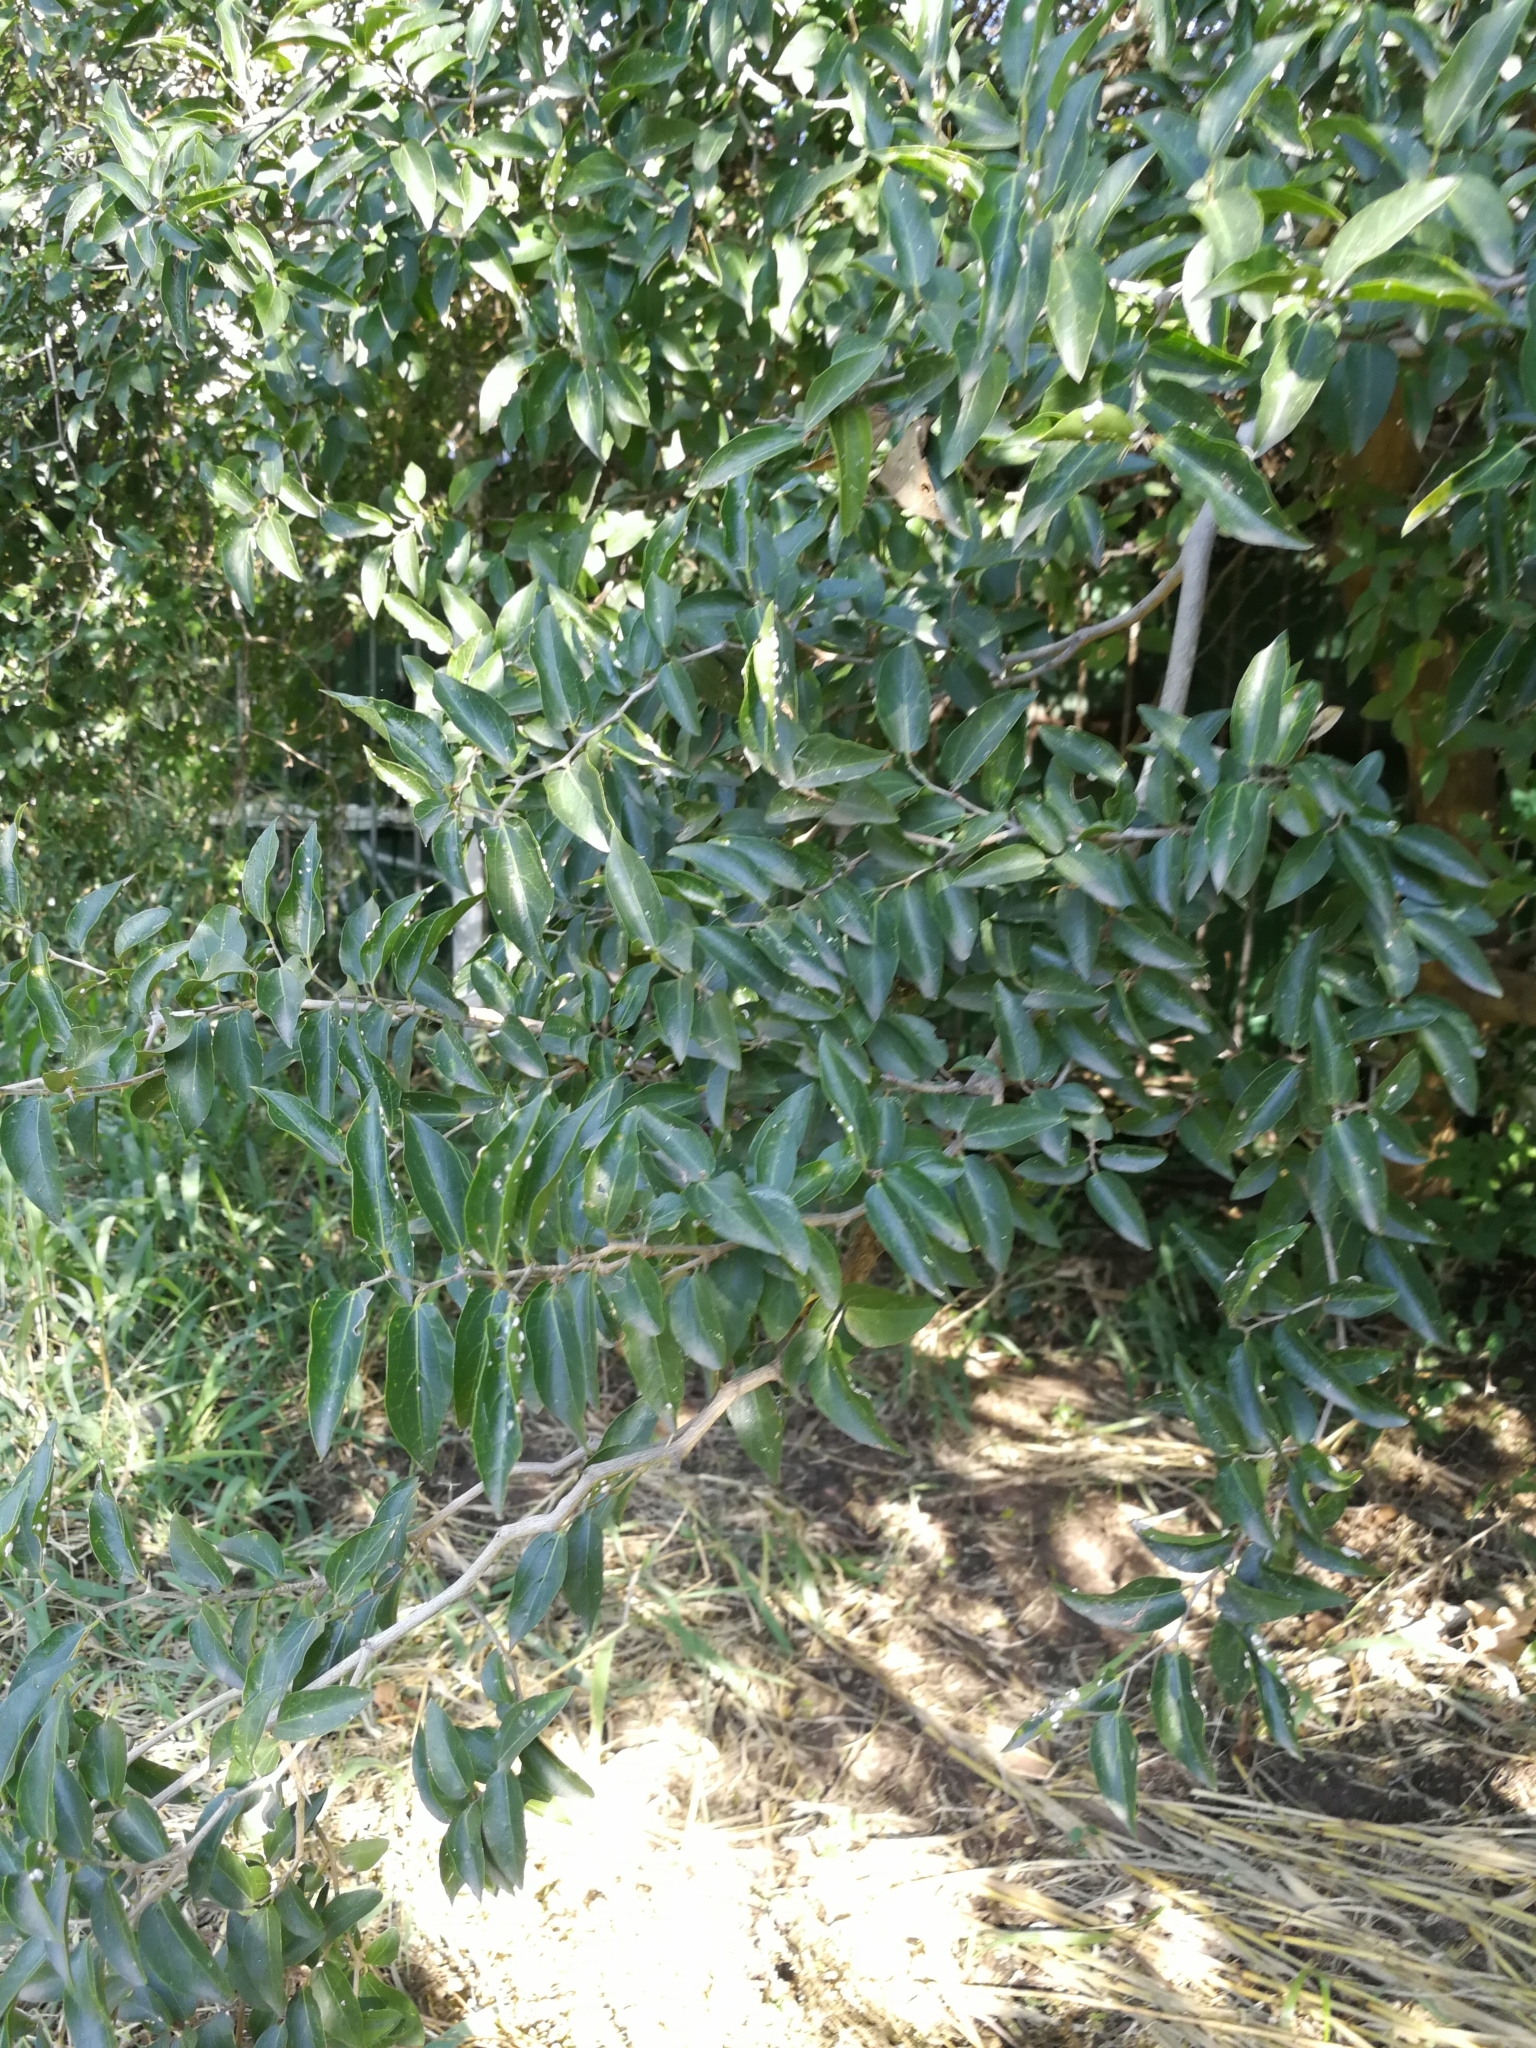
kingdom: Plantae
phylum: Tracheophyta
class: Magnoliopsida
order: Rosales
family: Cannabaceae
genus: Celtis
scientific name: Celtis tala
